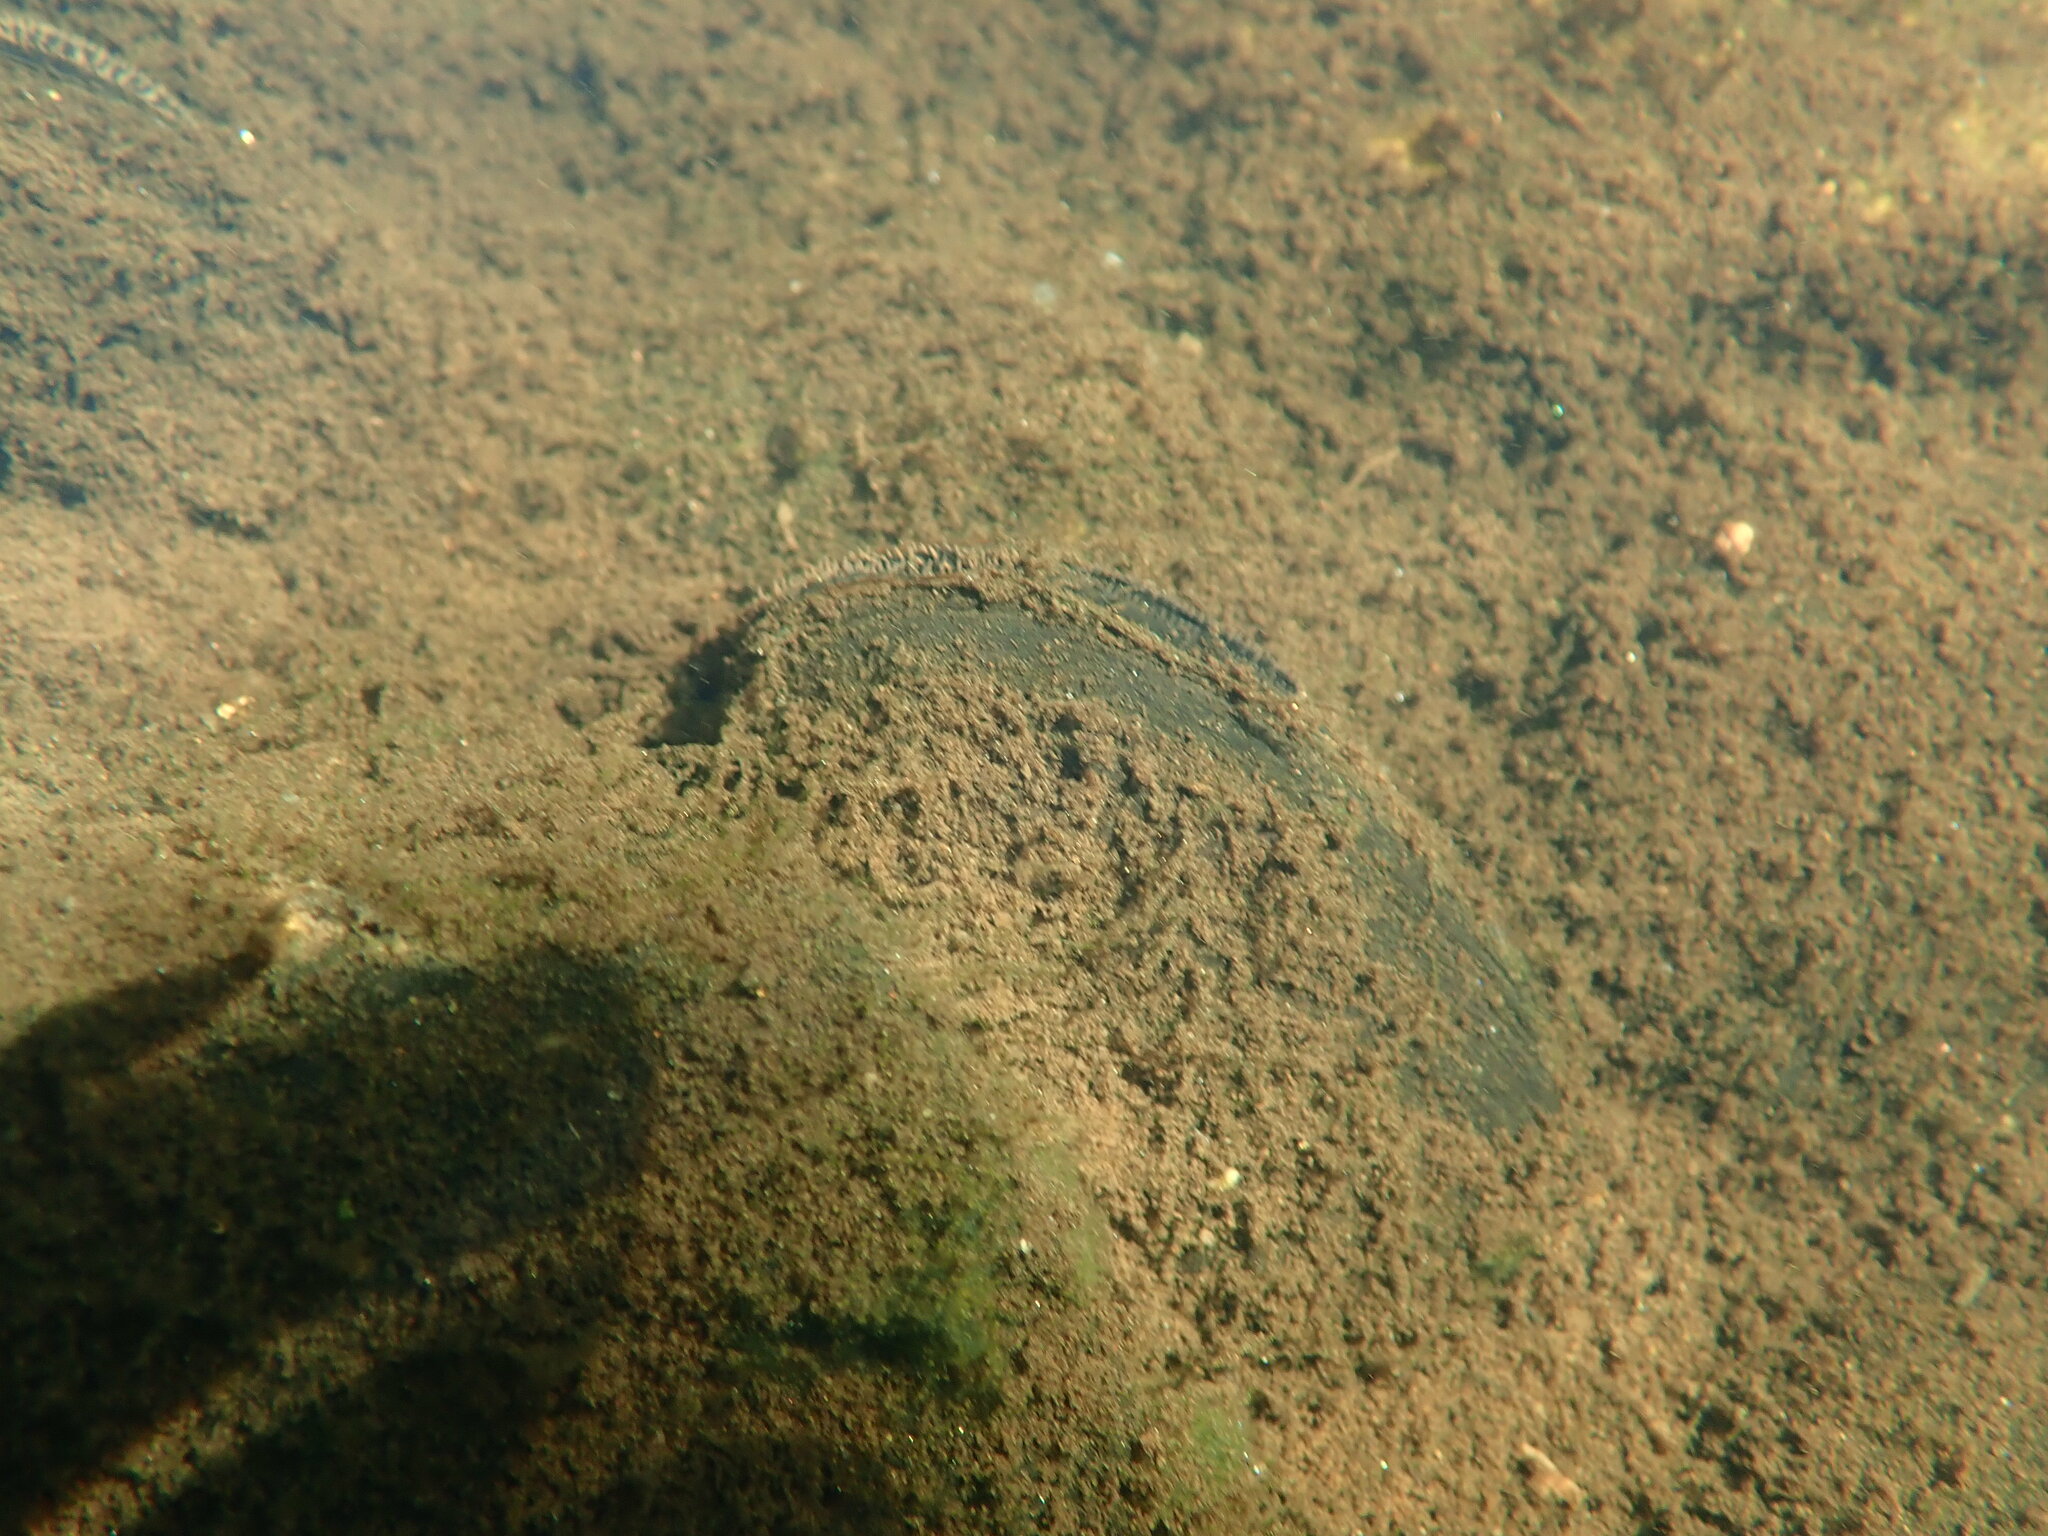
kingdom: Animalia
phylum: Mollusca
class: Bivalvia
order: Unionida
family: Unionidae
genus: Elliptio
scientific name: Elliptio complanata
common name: Eastern elliptio
